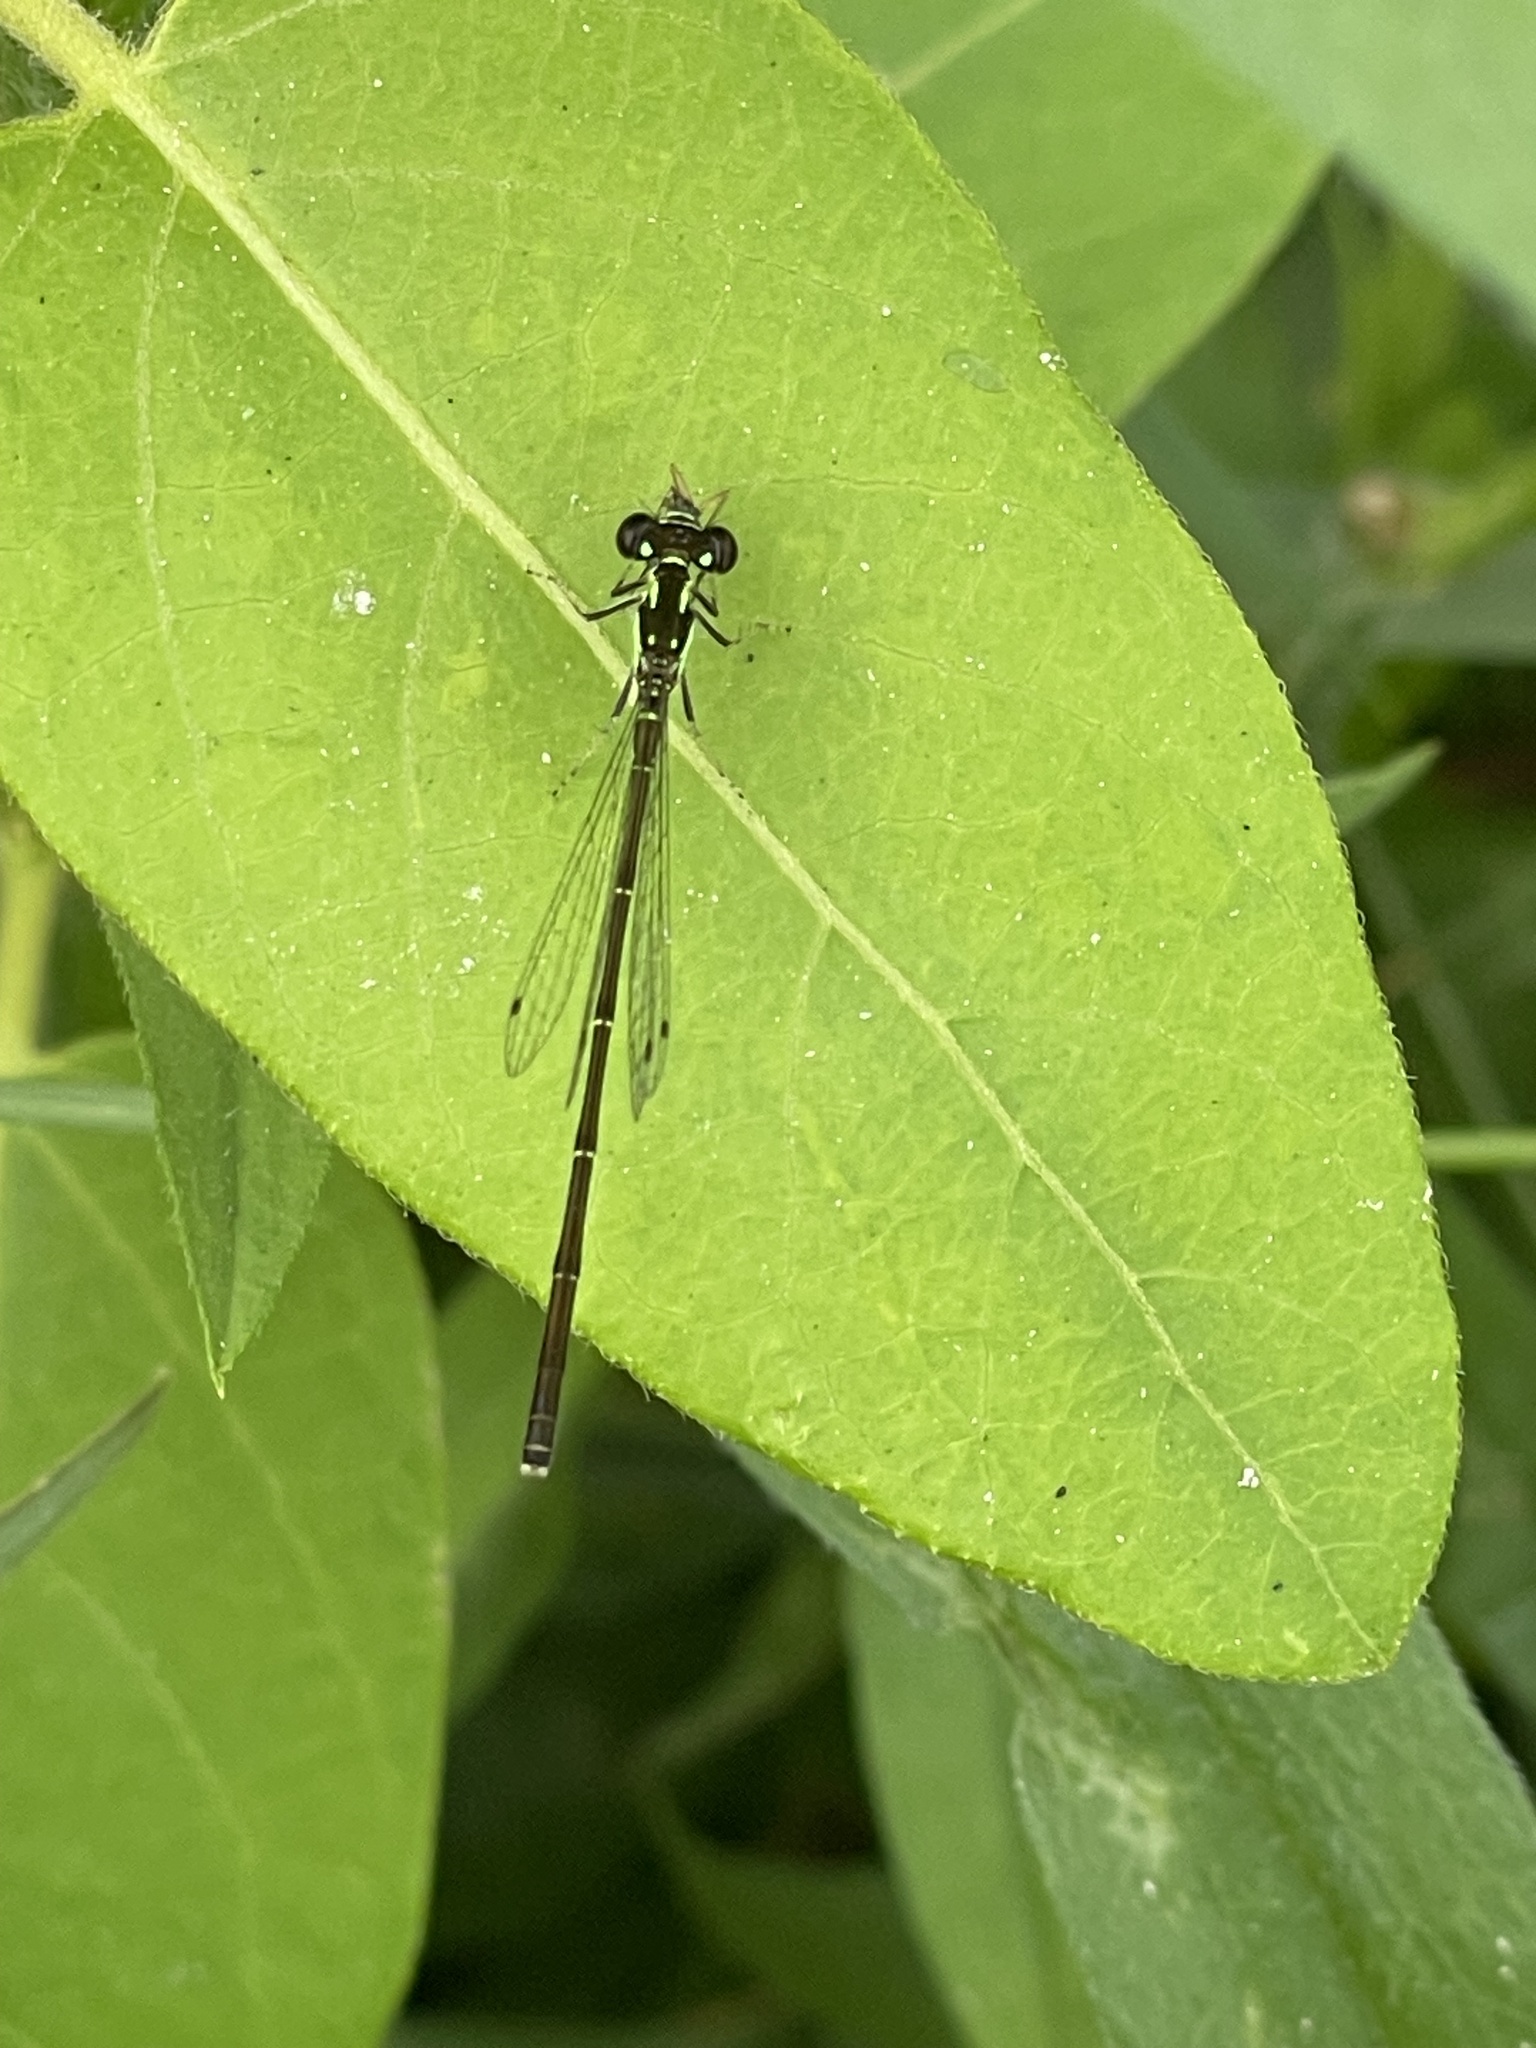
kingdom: Animalia
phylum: Arthropoda
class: Insecta
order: Odonata
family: Coenagrionidae
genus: Ischnura
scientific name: Ischnura posita
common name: Fragile forktail
